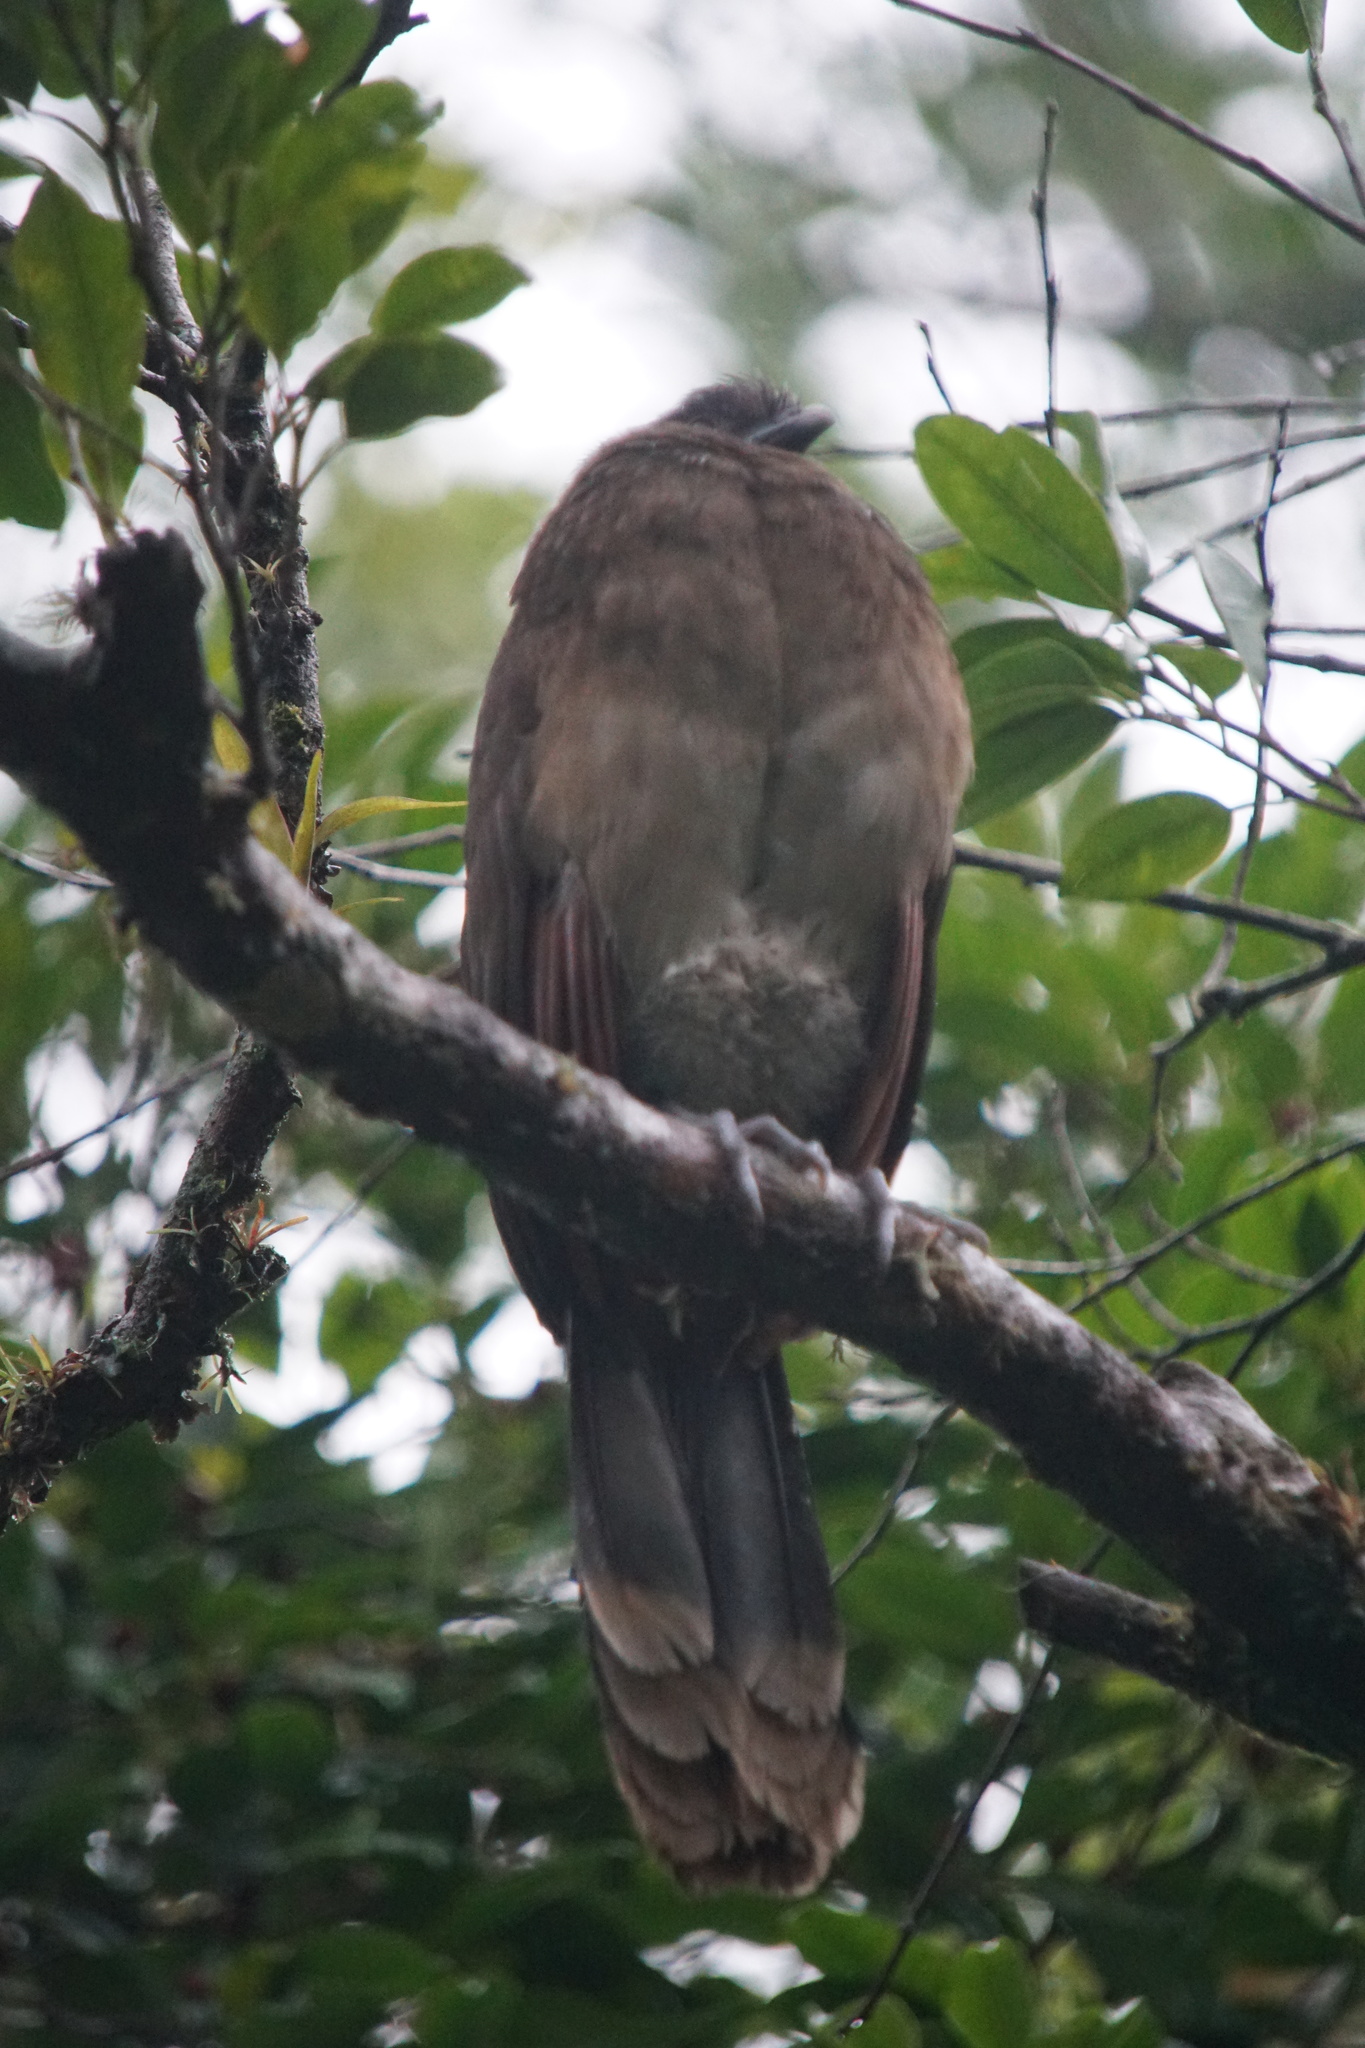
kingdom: Animalia
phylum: Chordata
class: Aves
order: Galliformes
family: Cracidae
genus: Ortalis
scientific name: Ortalis cinereiceps
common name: Grey-headed chachalaca
